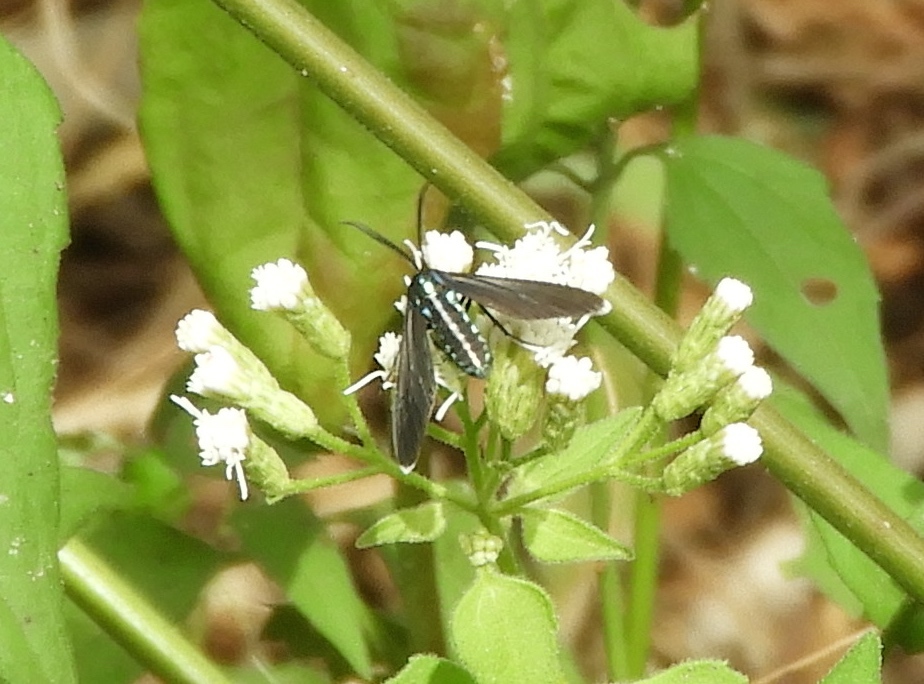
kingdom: Animalia
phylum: Arthropoda
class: Insecta
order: Lepidoptera
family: Erebidae
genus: Uranophora
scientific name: Uranophora leucotela
